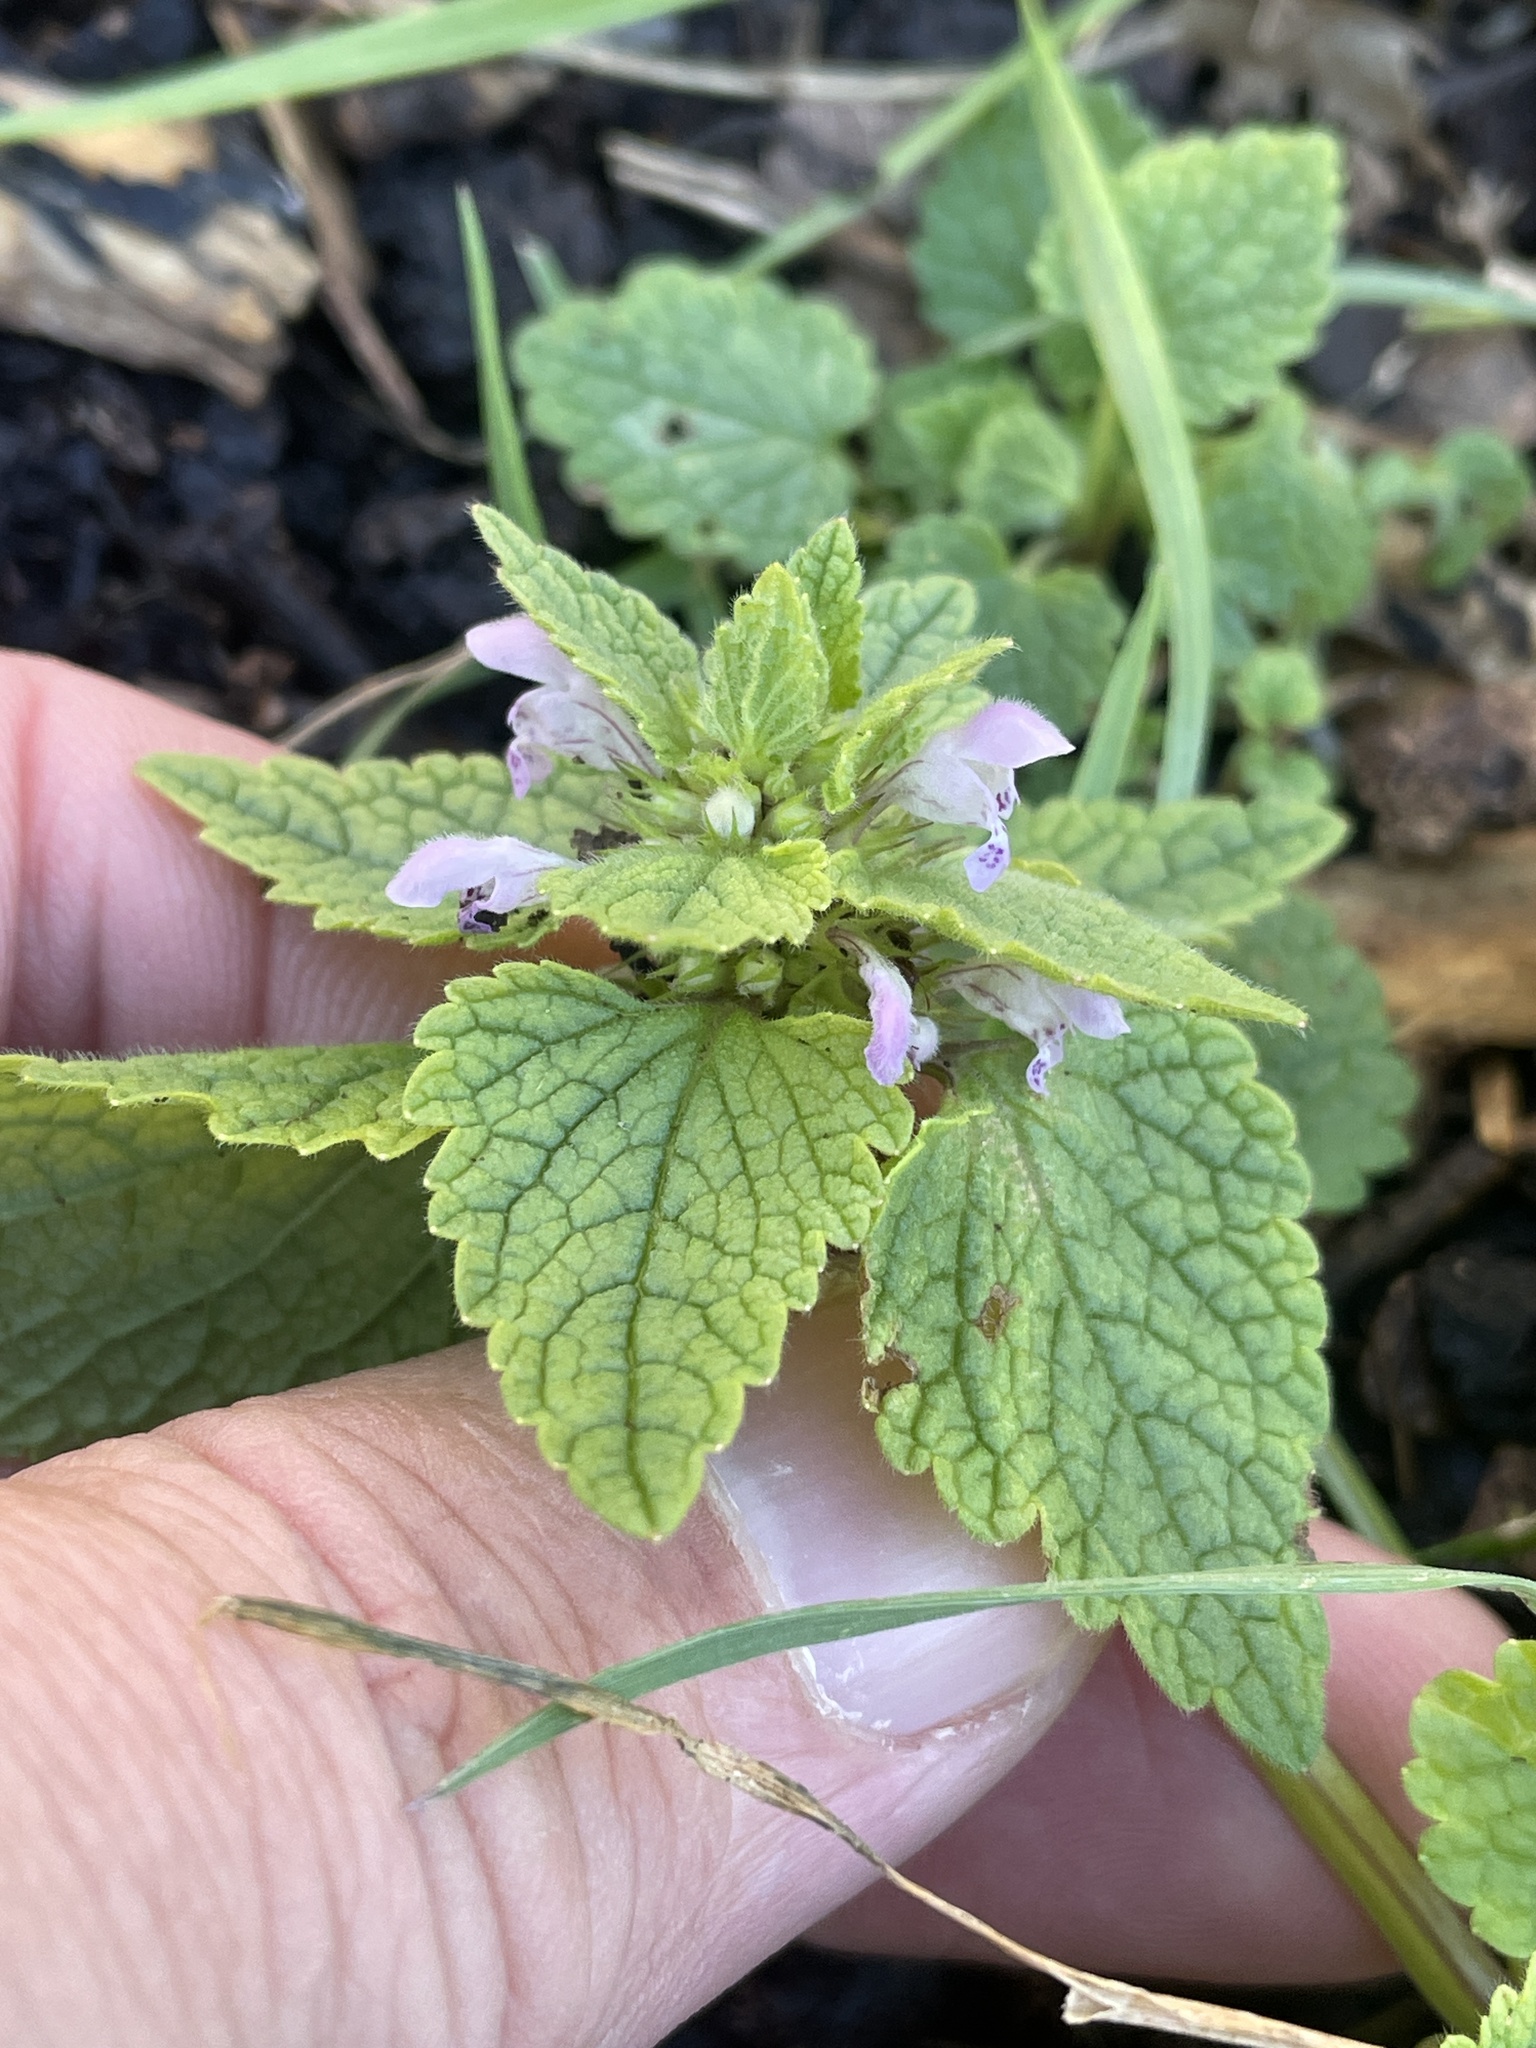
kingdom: Plantae
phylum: Tracheophyta
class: Magnoliopsida
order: Lamiales
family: Lamiaceae
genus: Lamium
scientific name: Lamium purpureum
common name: Red dead-nettle
